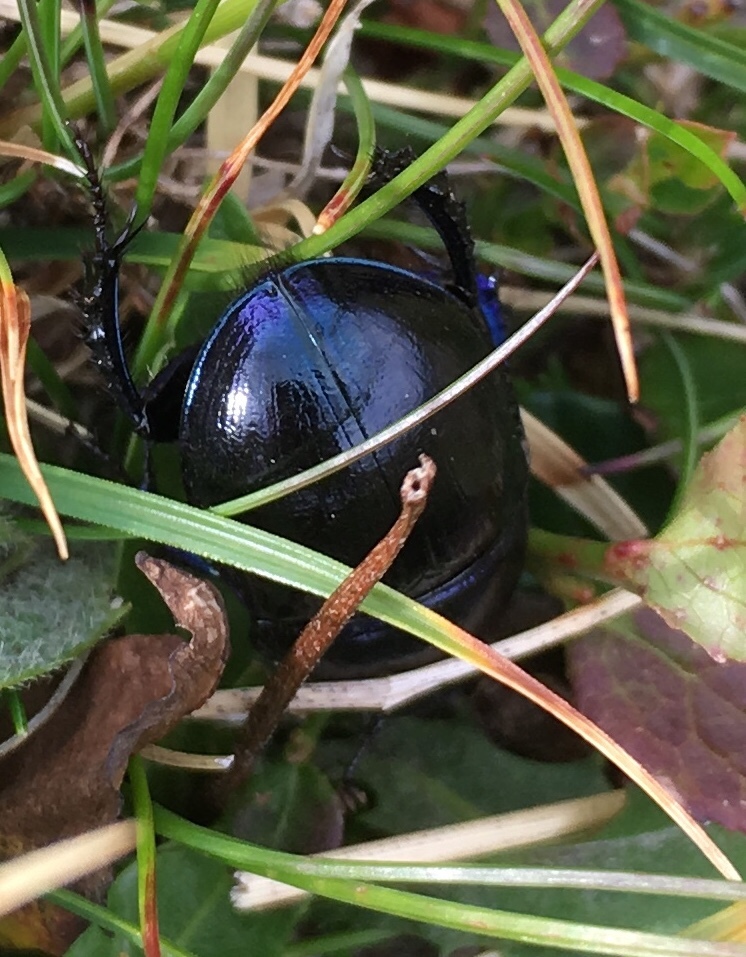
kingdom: Animalia
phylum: Arthropoda
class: Insecta
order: Coleoptera
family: Geotrupidae
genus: Anoplotrupes
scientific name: Anoplotrupes stercorosus
